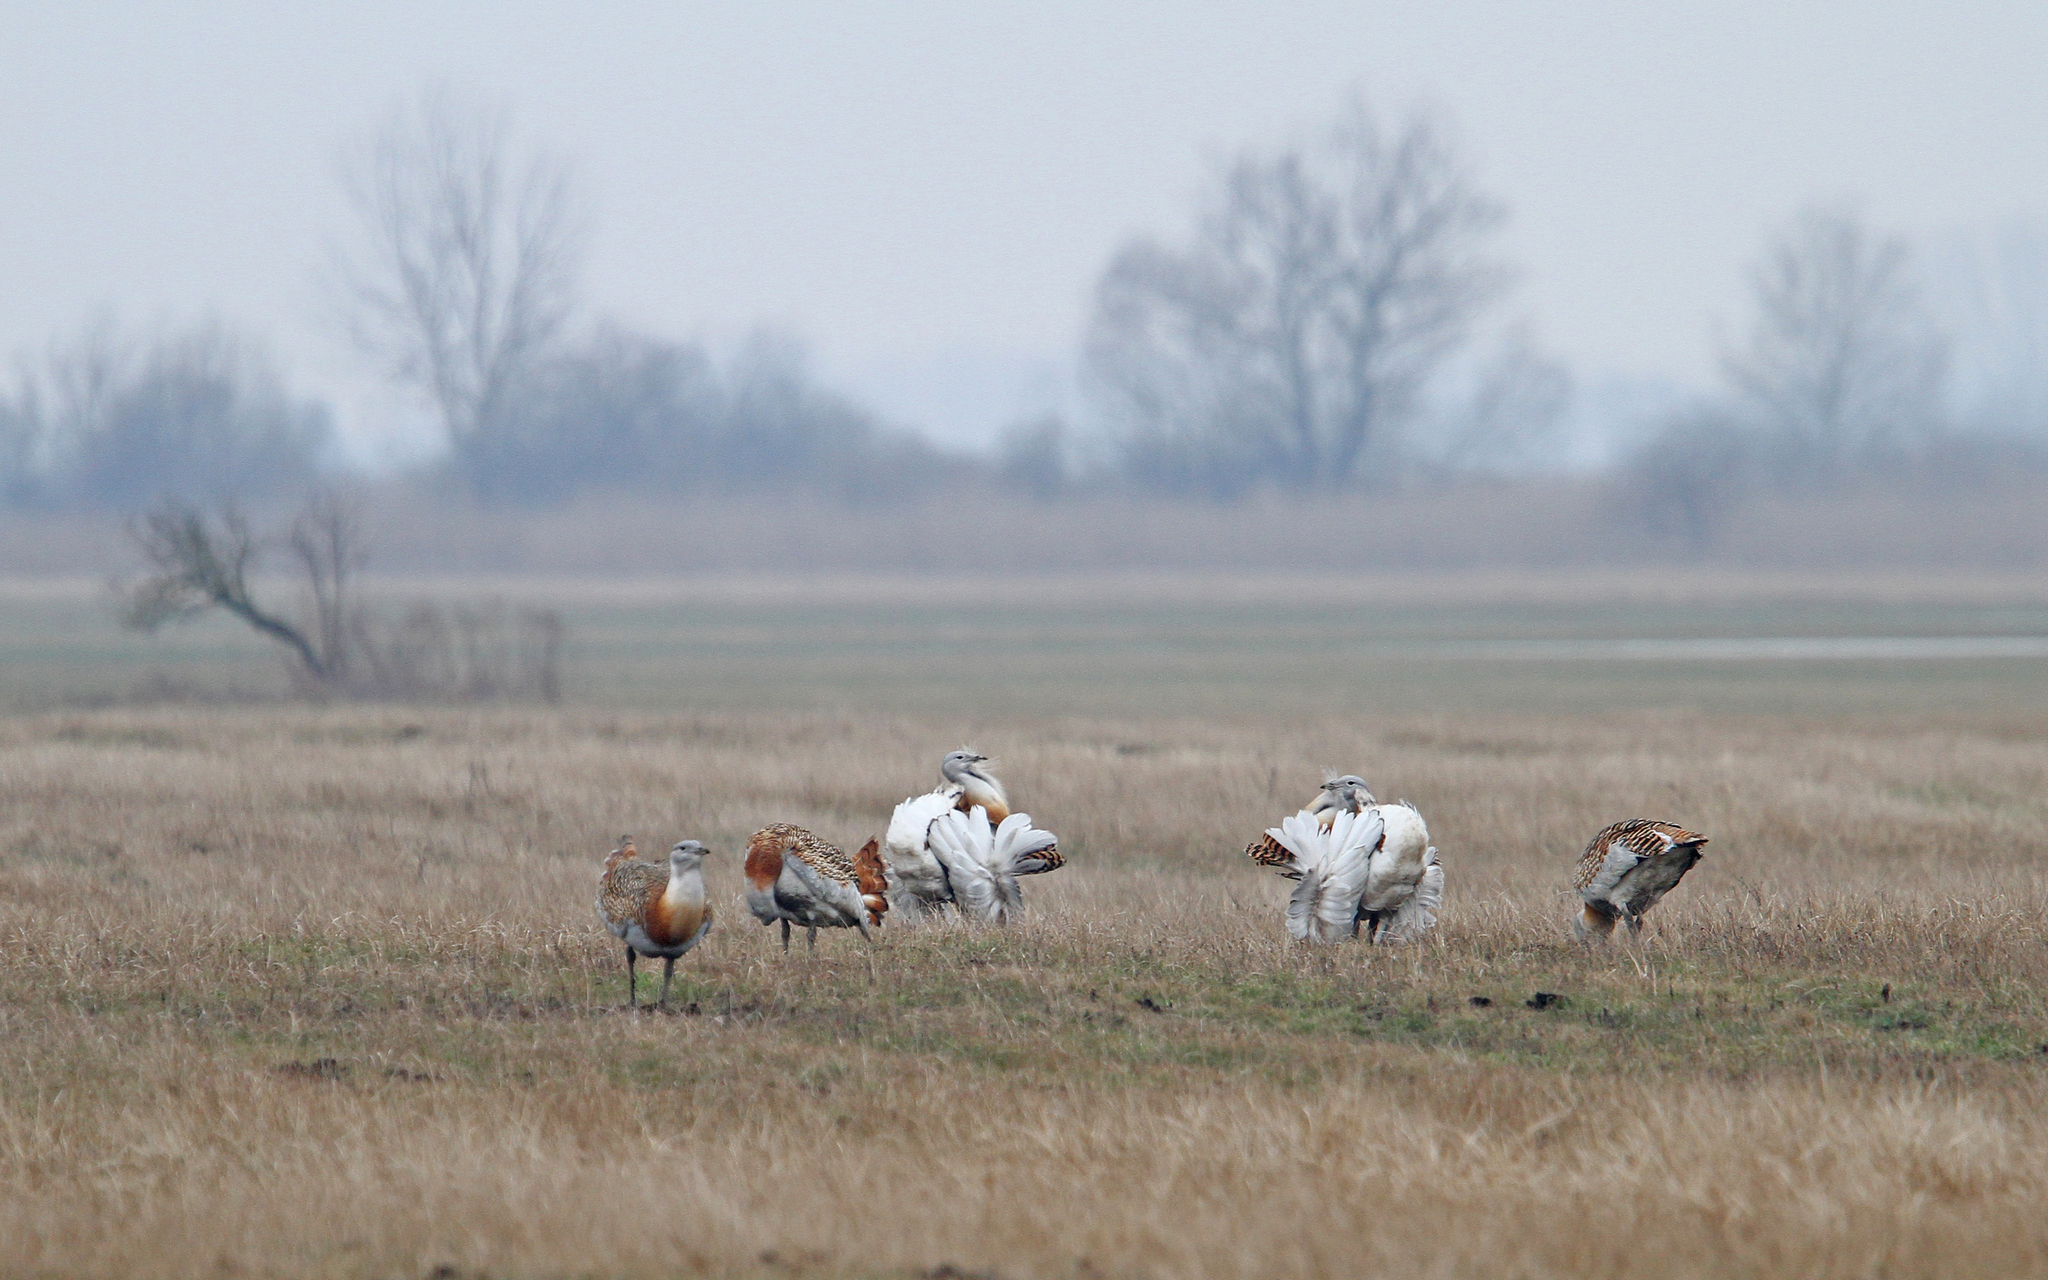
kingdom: Animalia
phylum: Chordata
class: Aves
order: Otidiformes
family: Otididae
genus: Otis
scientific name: Otis tarda
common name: Great bustard
